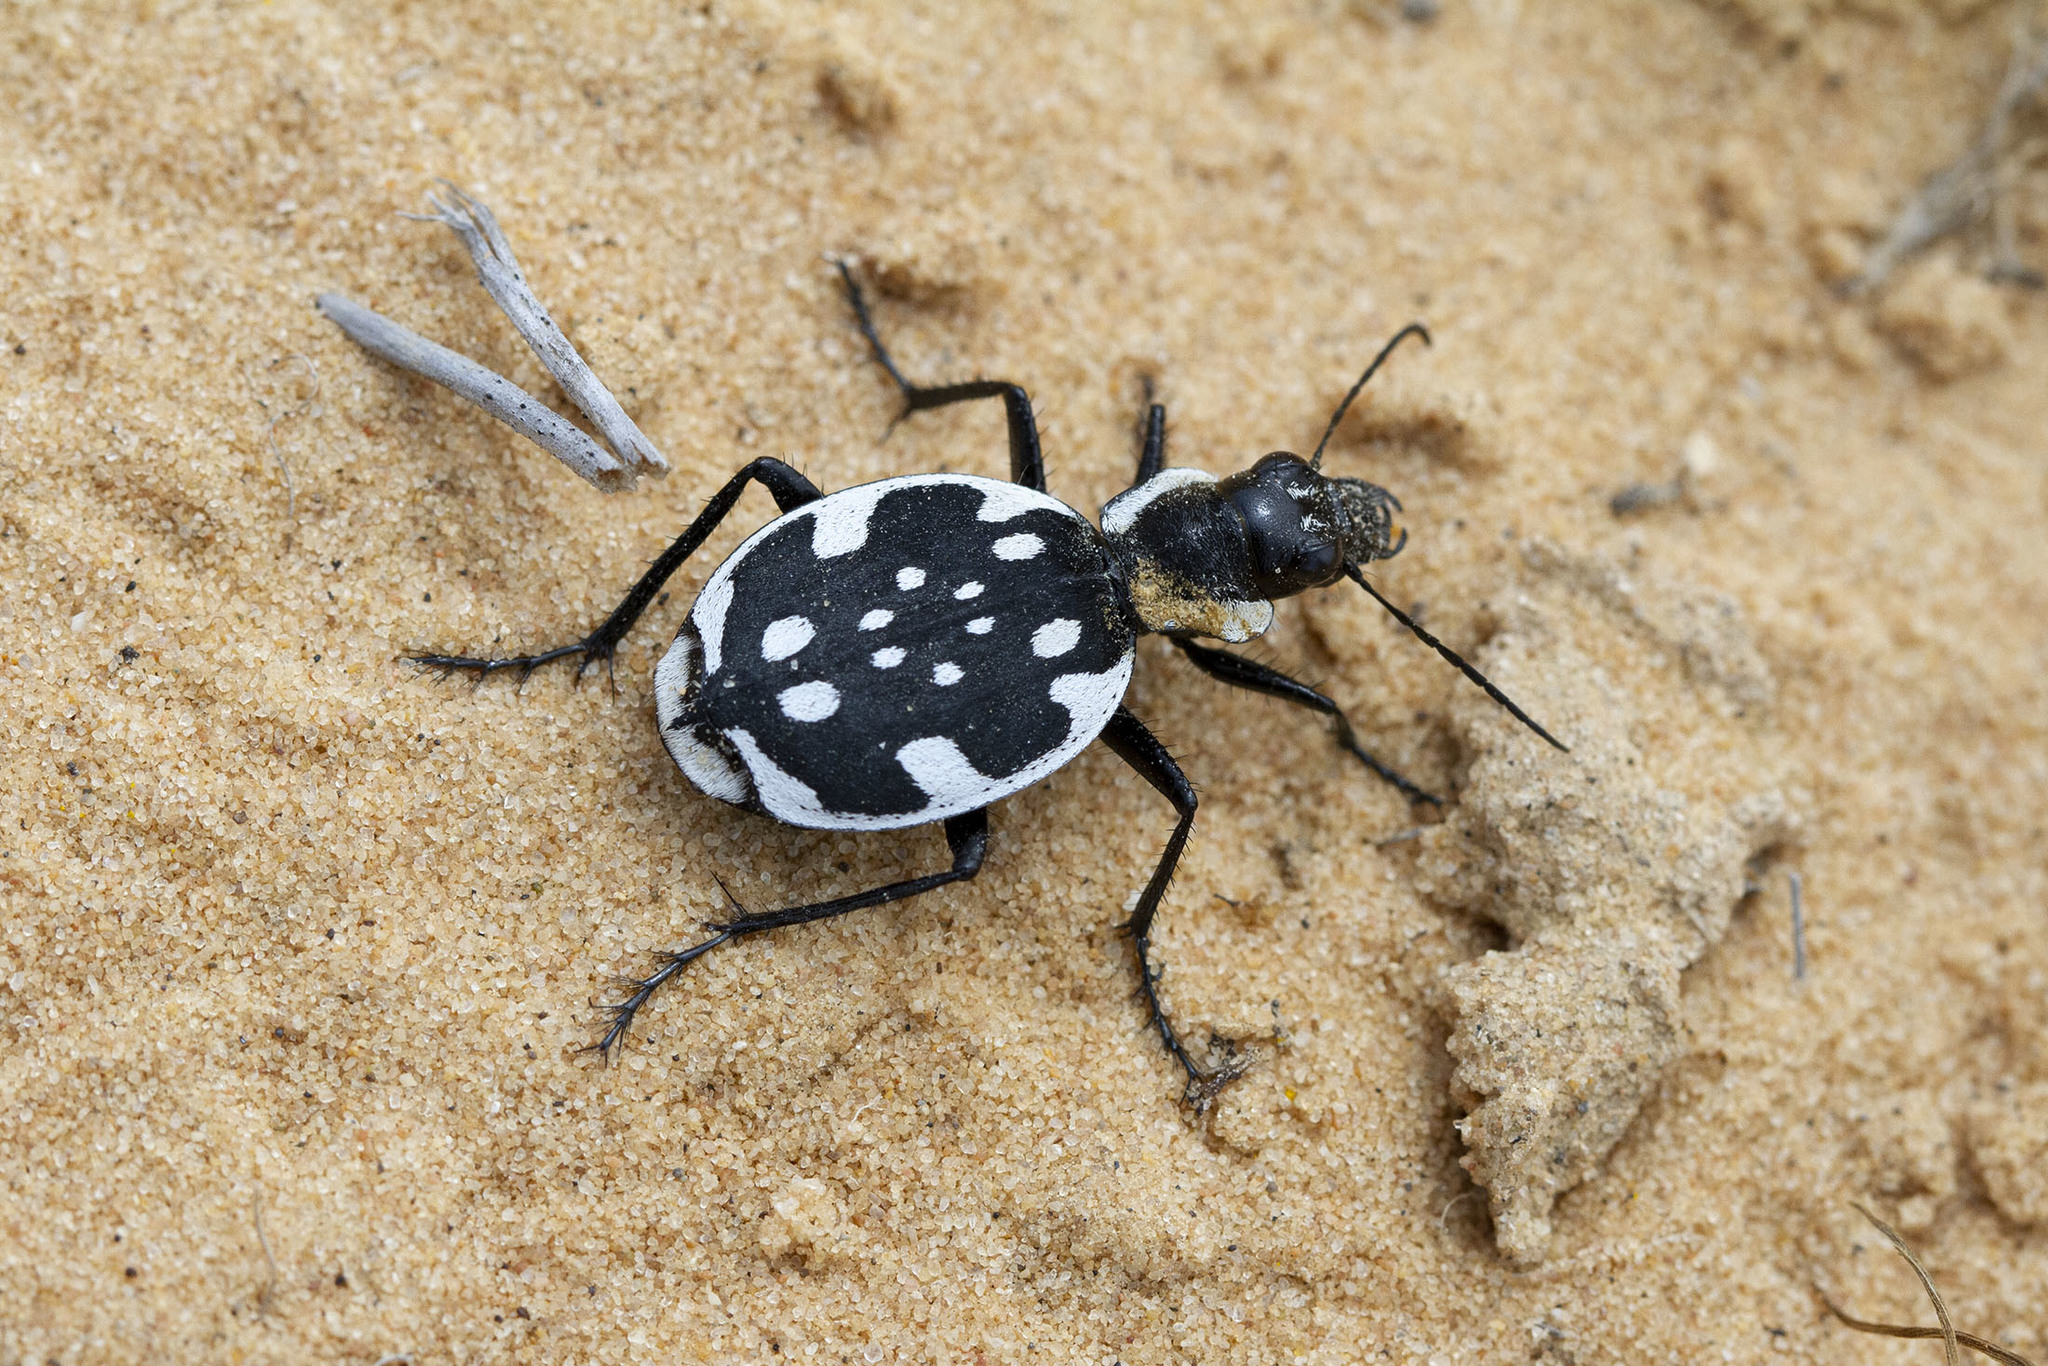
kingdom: Animalia
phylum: Arthropoda
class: Insecta
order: Coleoptera
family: Carabidae
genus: Graphipterus
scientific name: Graphipterus serrator
